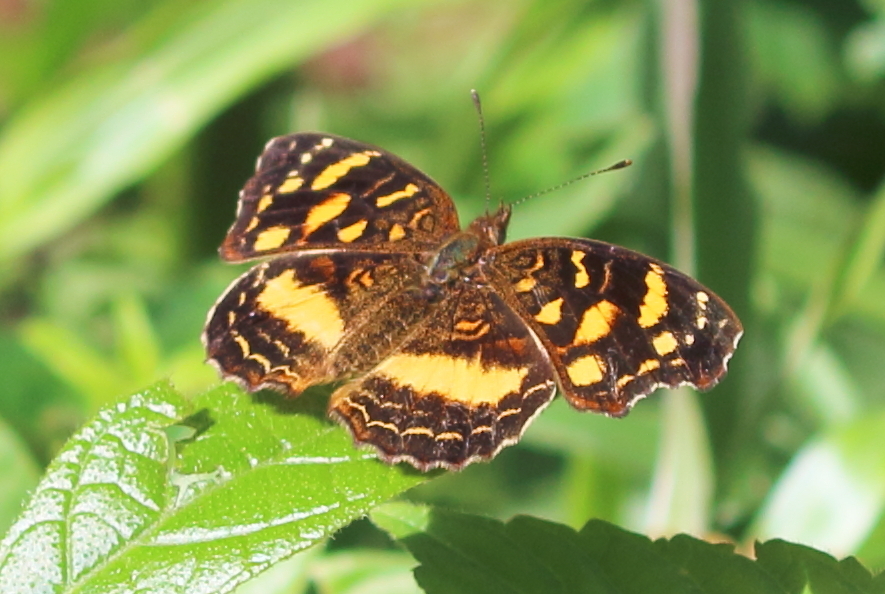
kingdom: Animalia
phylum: Arthropoda
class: Insecta
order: Lepidoptera
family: Nymphalidae
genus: Anthanassa
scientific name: Anthanassa drusilla
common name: Orange-patched crescent
